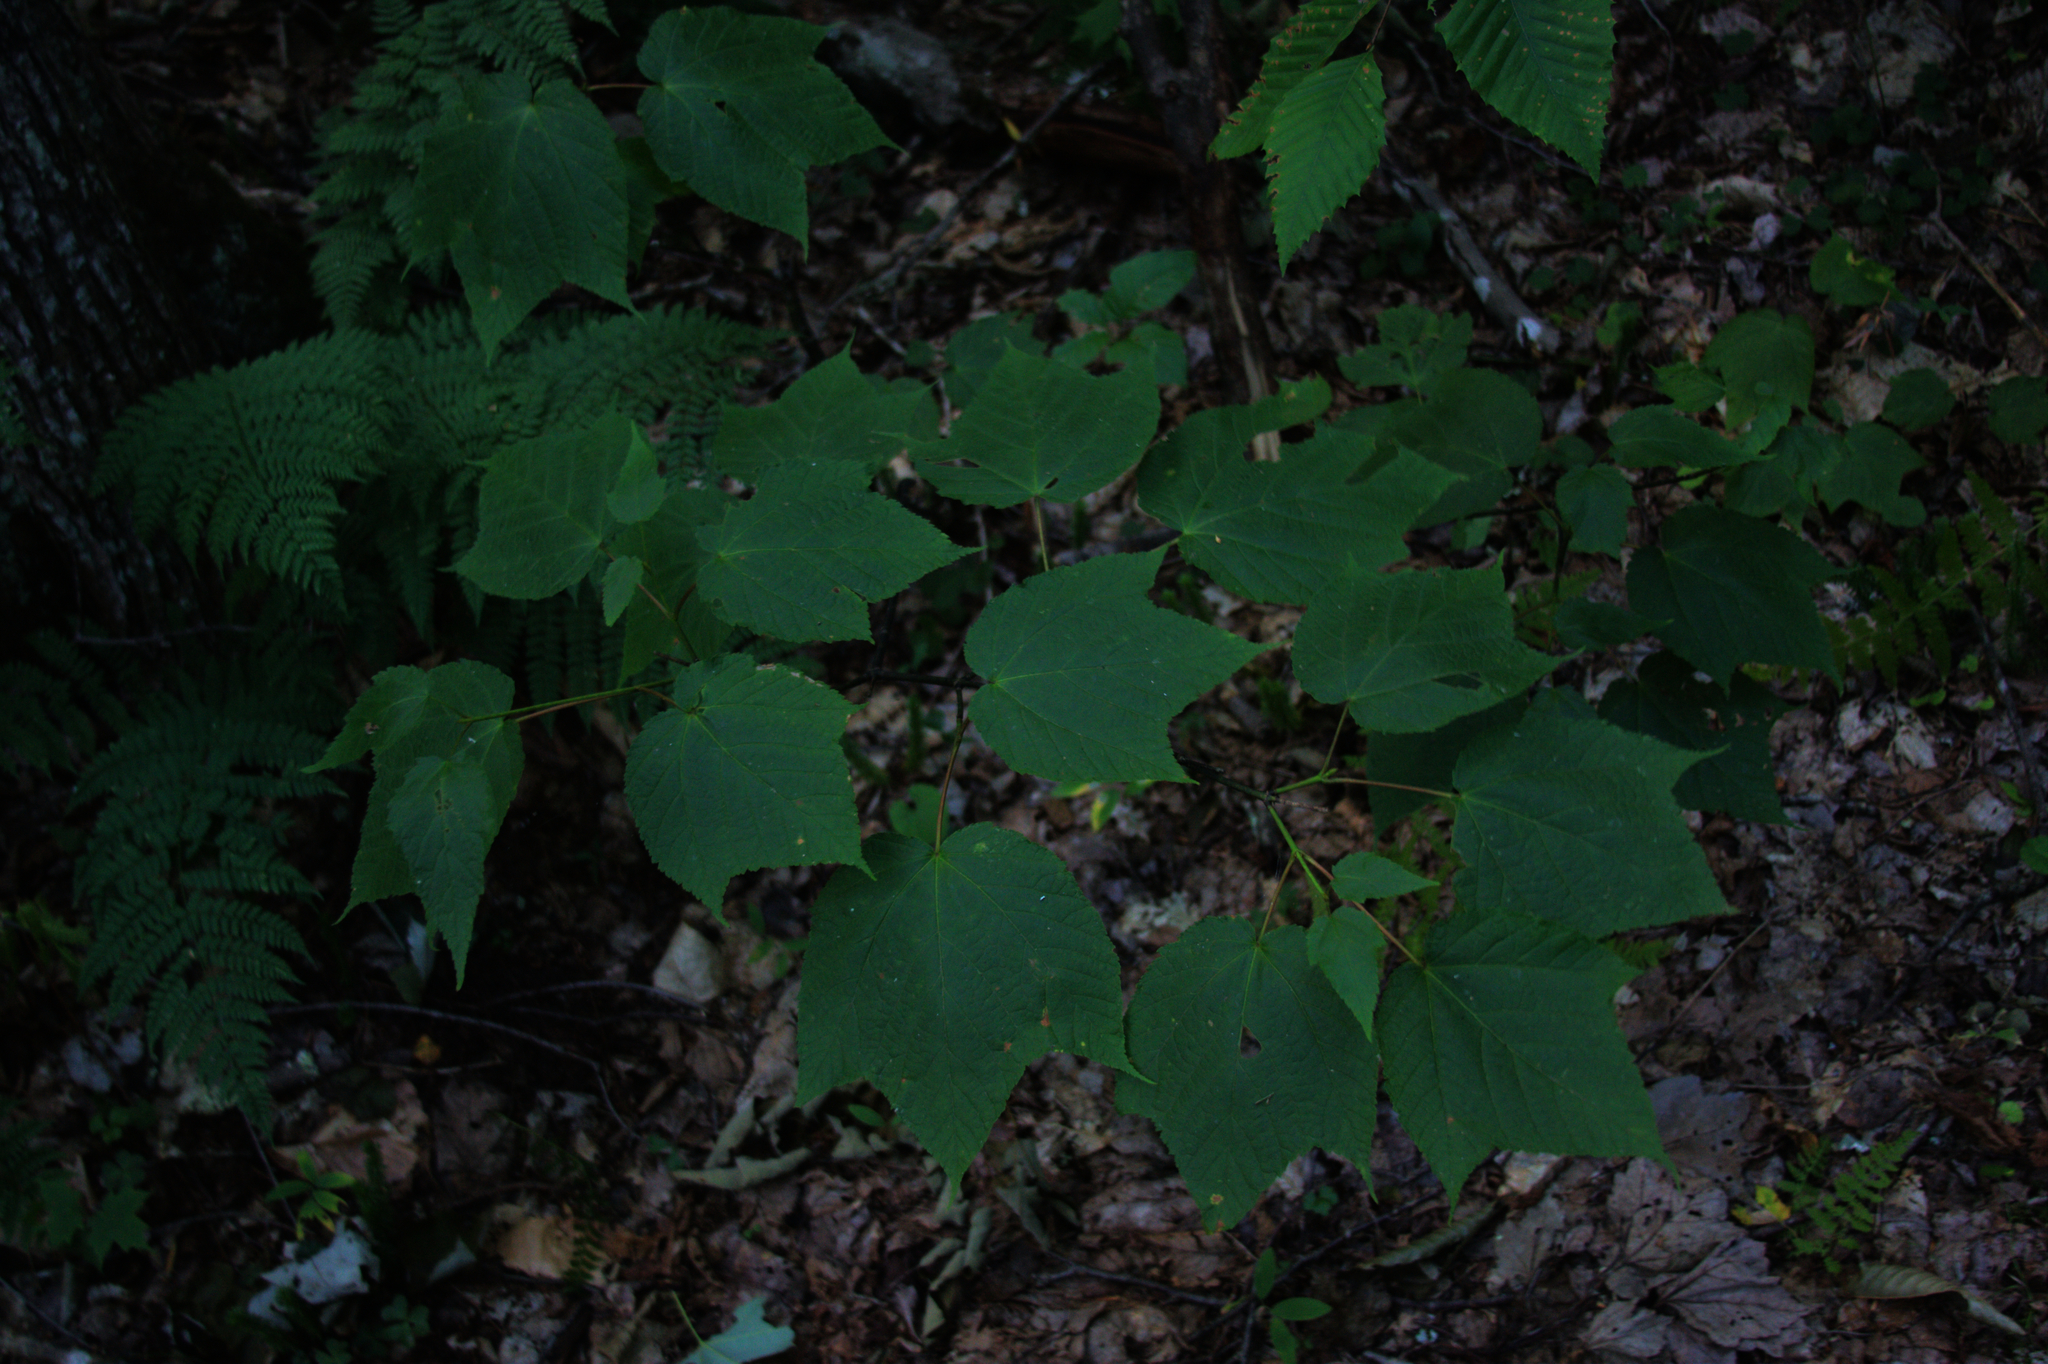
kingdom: Plantae
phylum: Tracheophyta
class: Magnoliopsida
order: Sapindales
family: Sapindaceae
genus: Acer
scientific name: Acer pensylvanicum
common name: Moosewood
